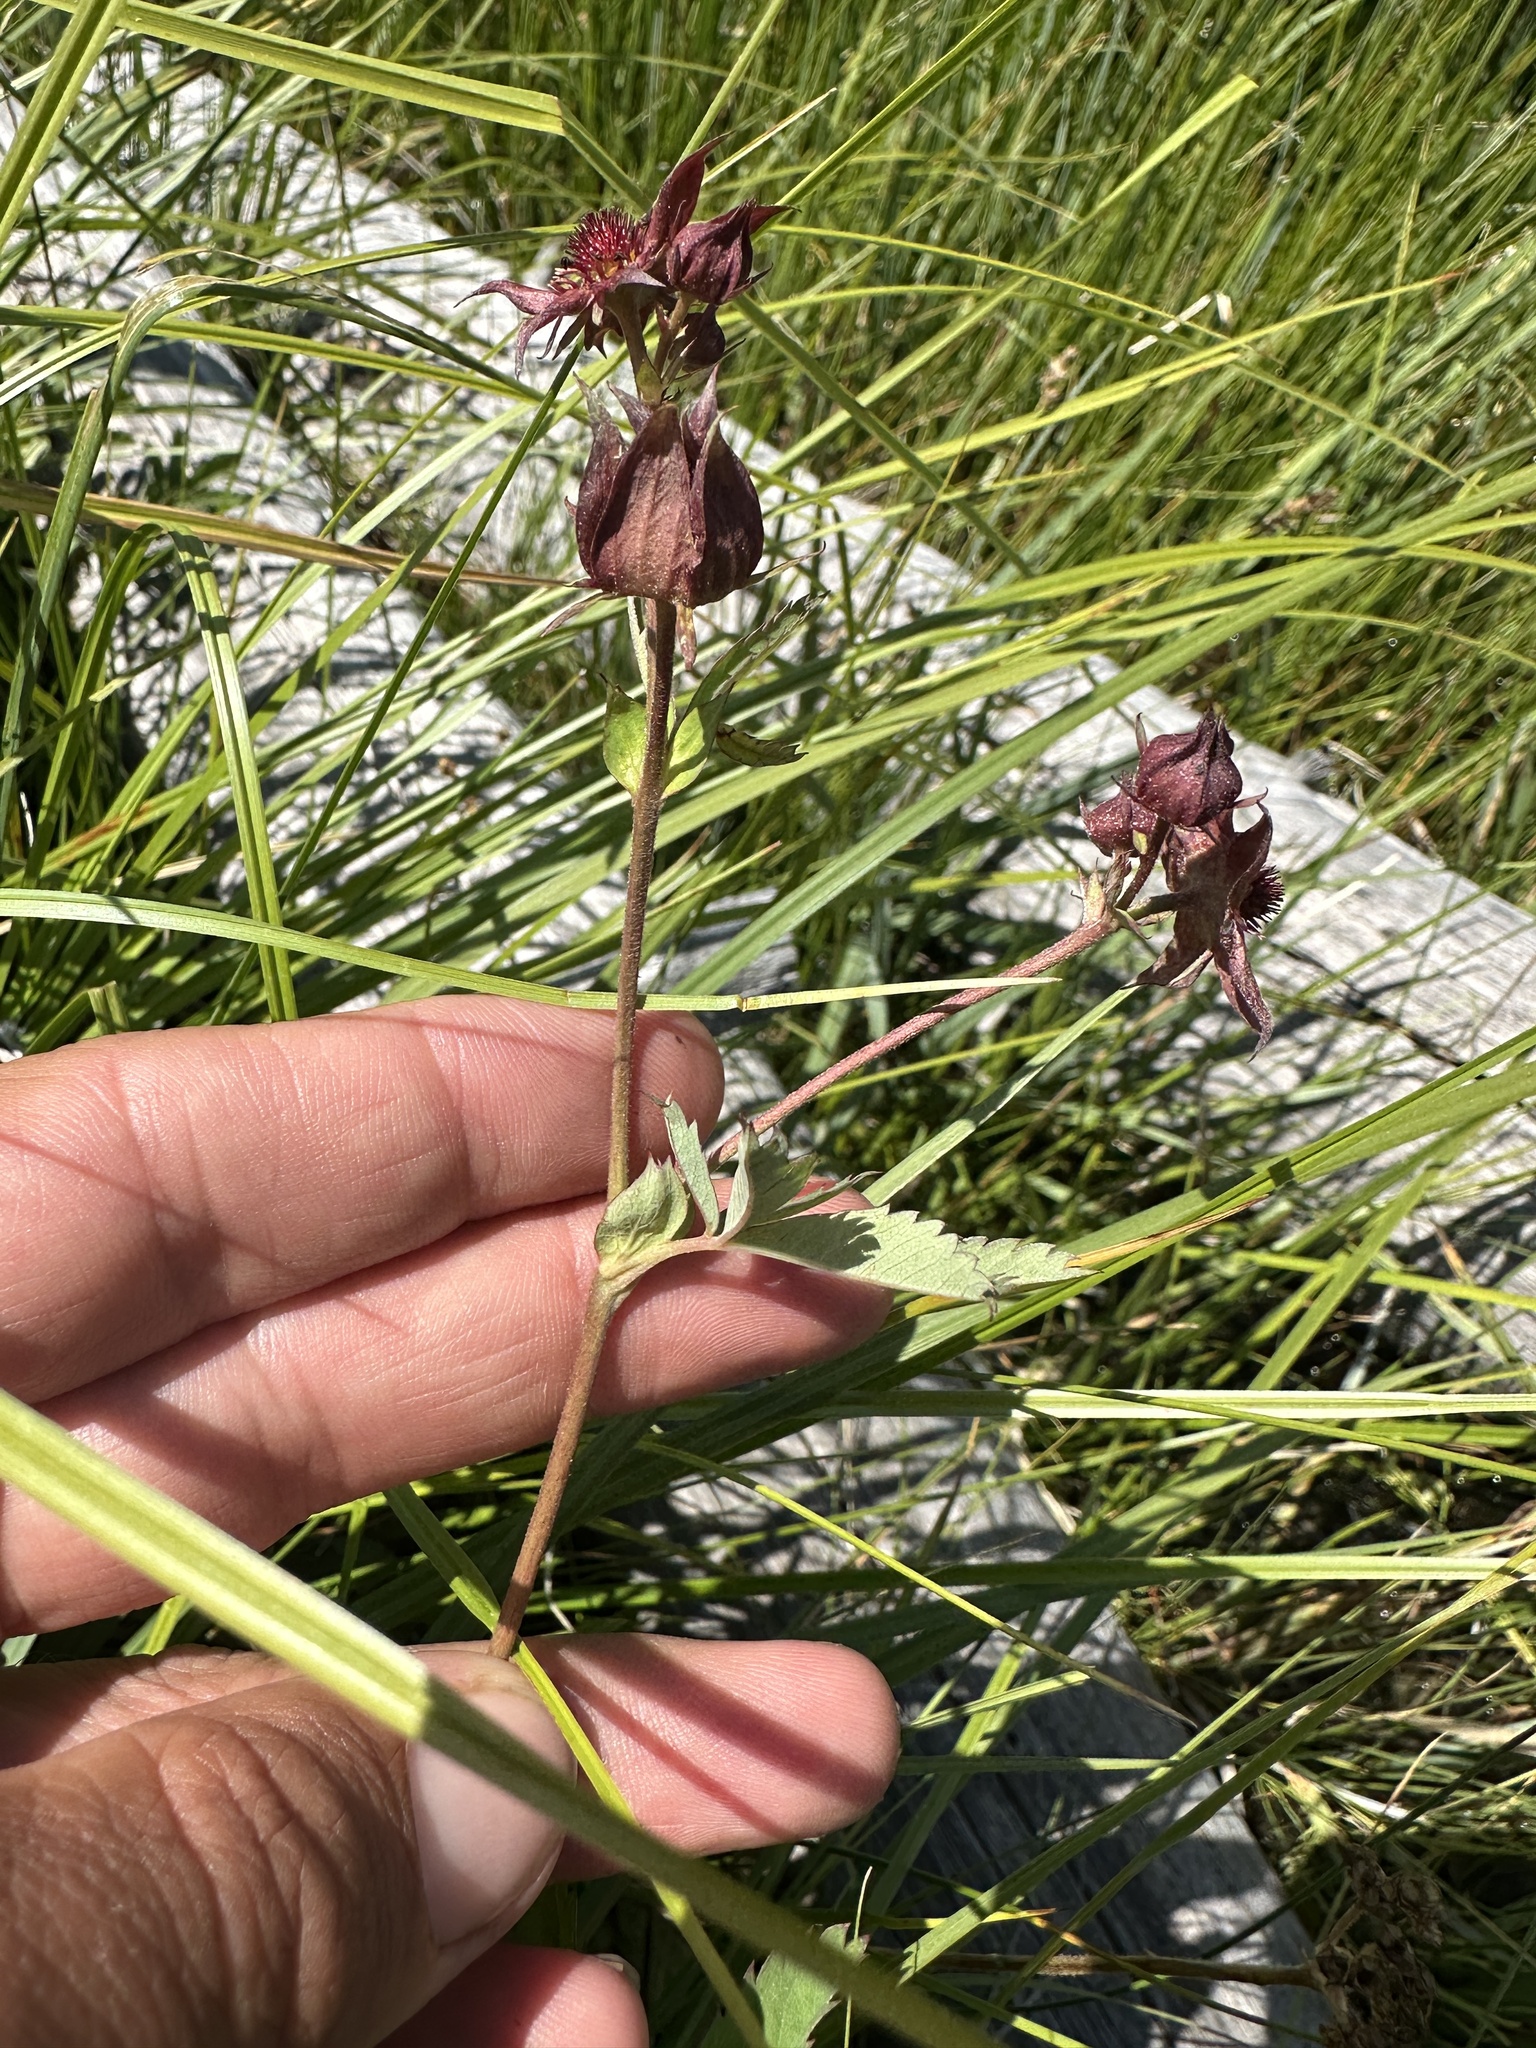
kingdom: Plantae
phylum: Tracheophyta
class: Magnoliopsida
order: Rosales
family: Rosaceae
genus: Comarum
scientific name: Comarum palustre
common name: Marsh cinquefoil
